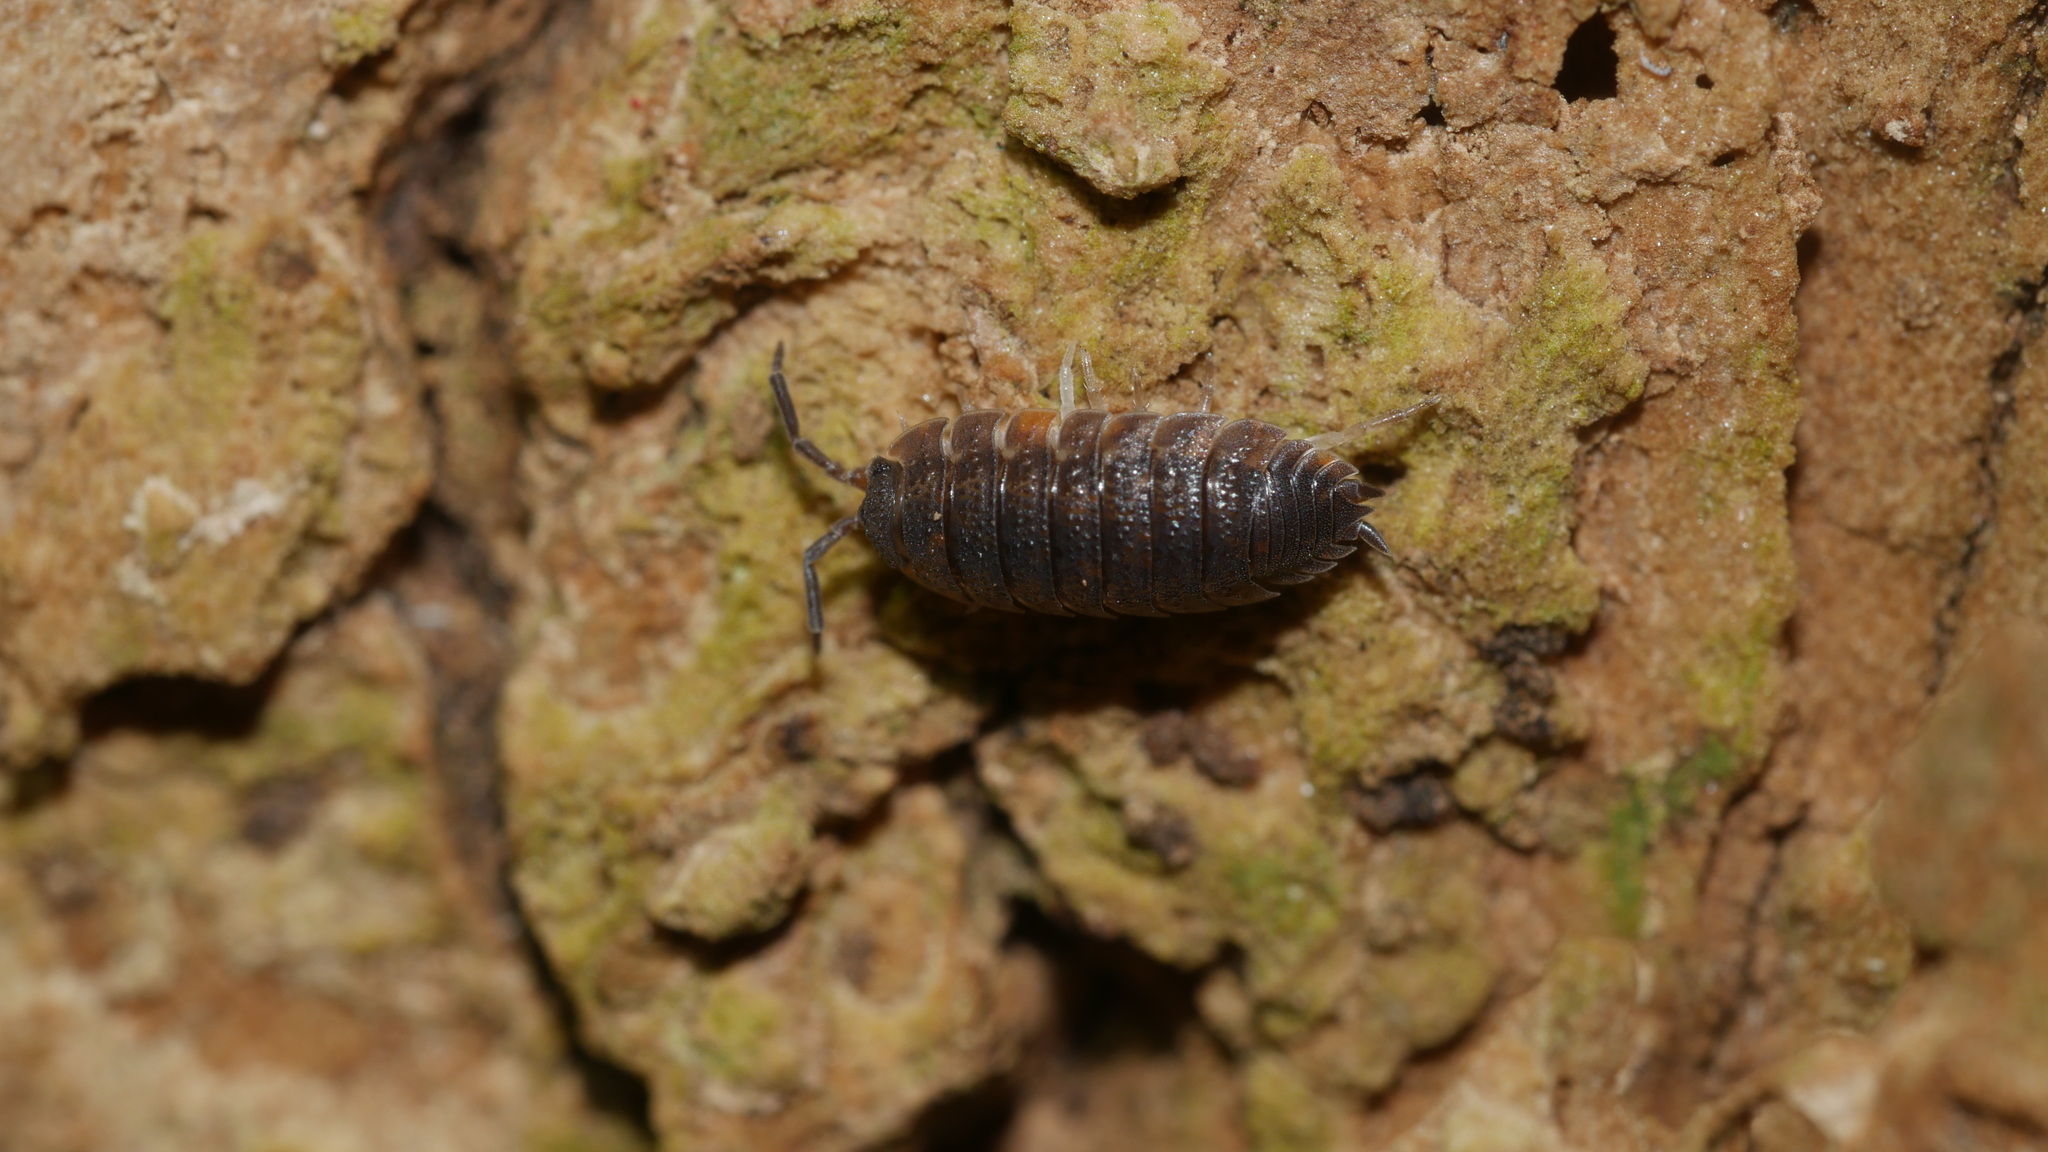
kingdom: Animalia
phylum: Arthropoda
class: Malacostraca
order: Isopoda
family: Porcellionidae
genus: Porcellio
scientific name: Porcellio scaber
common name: Common rough woodlouse
